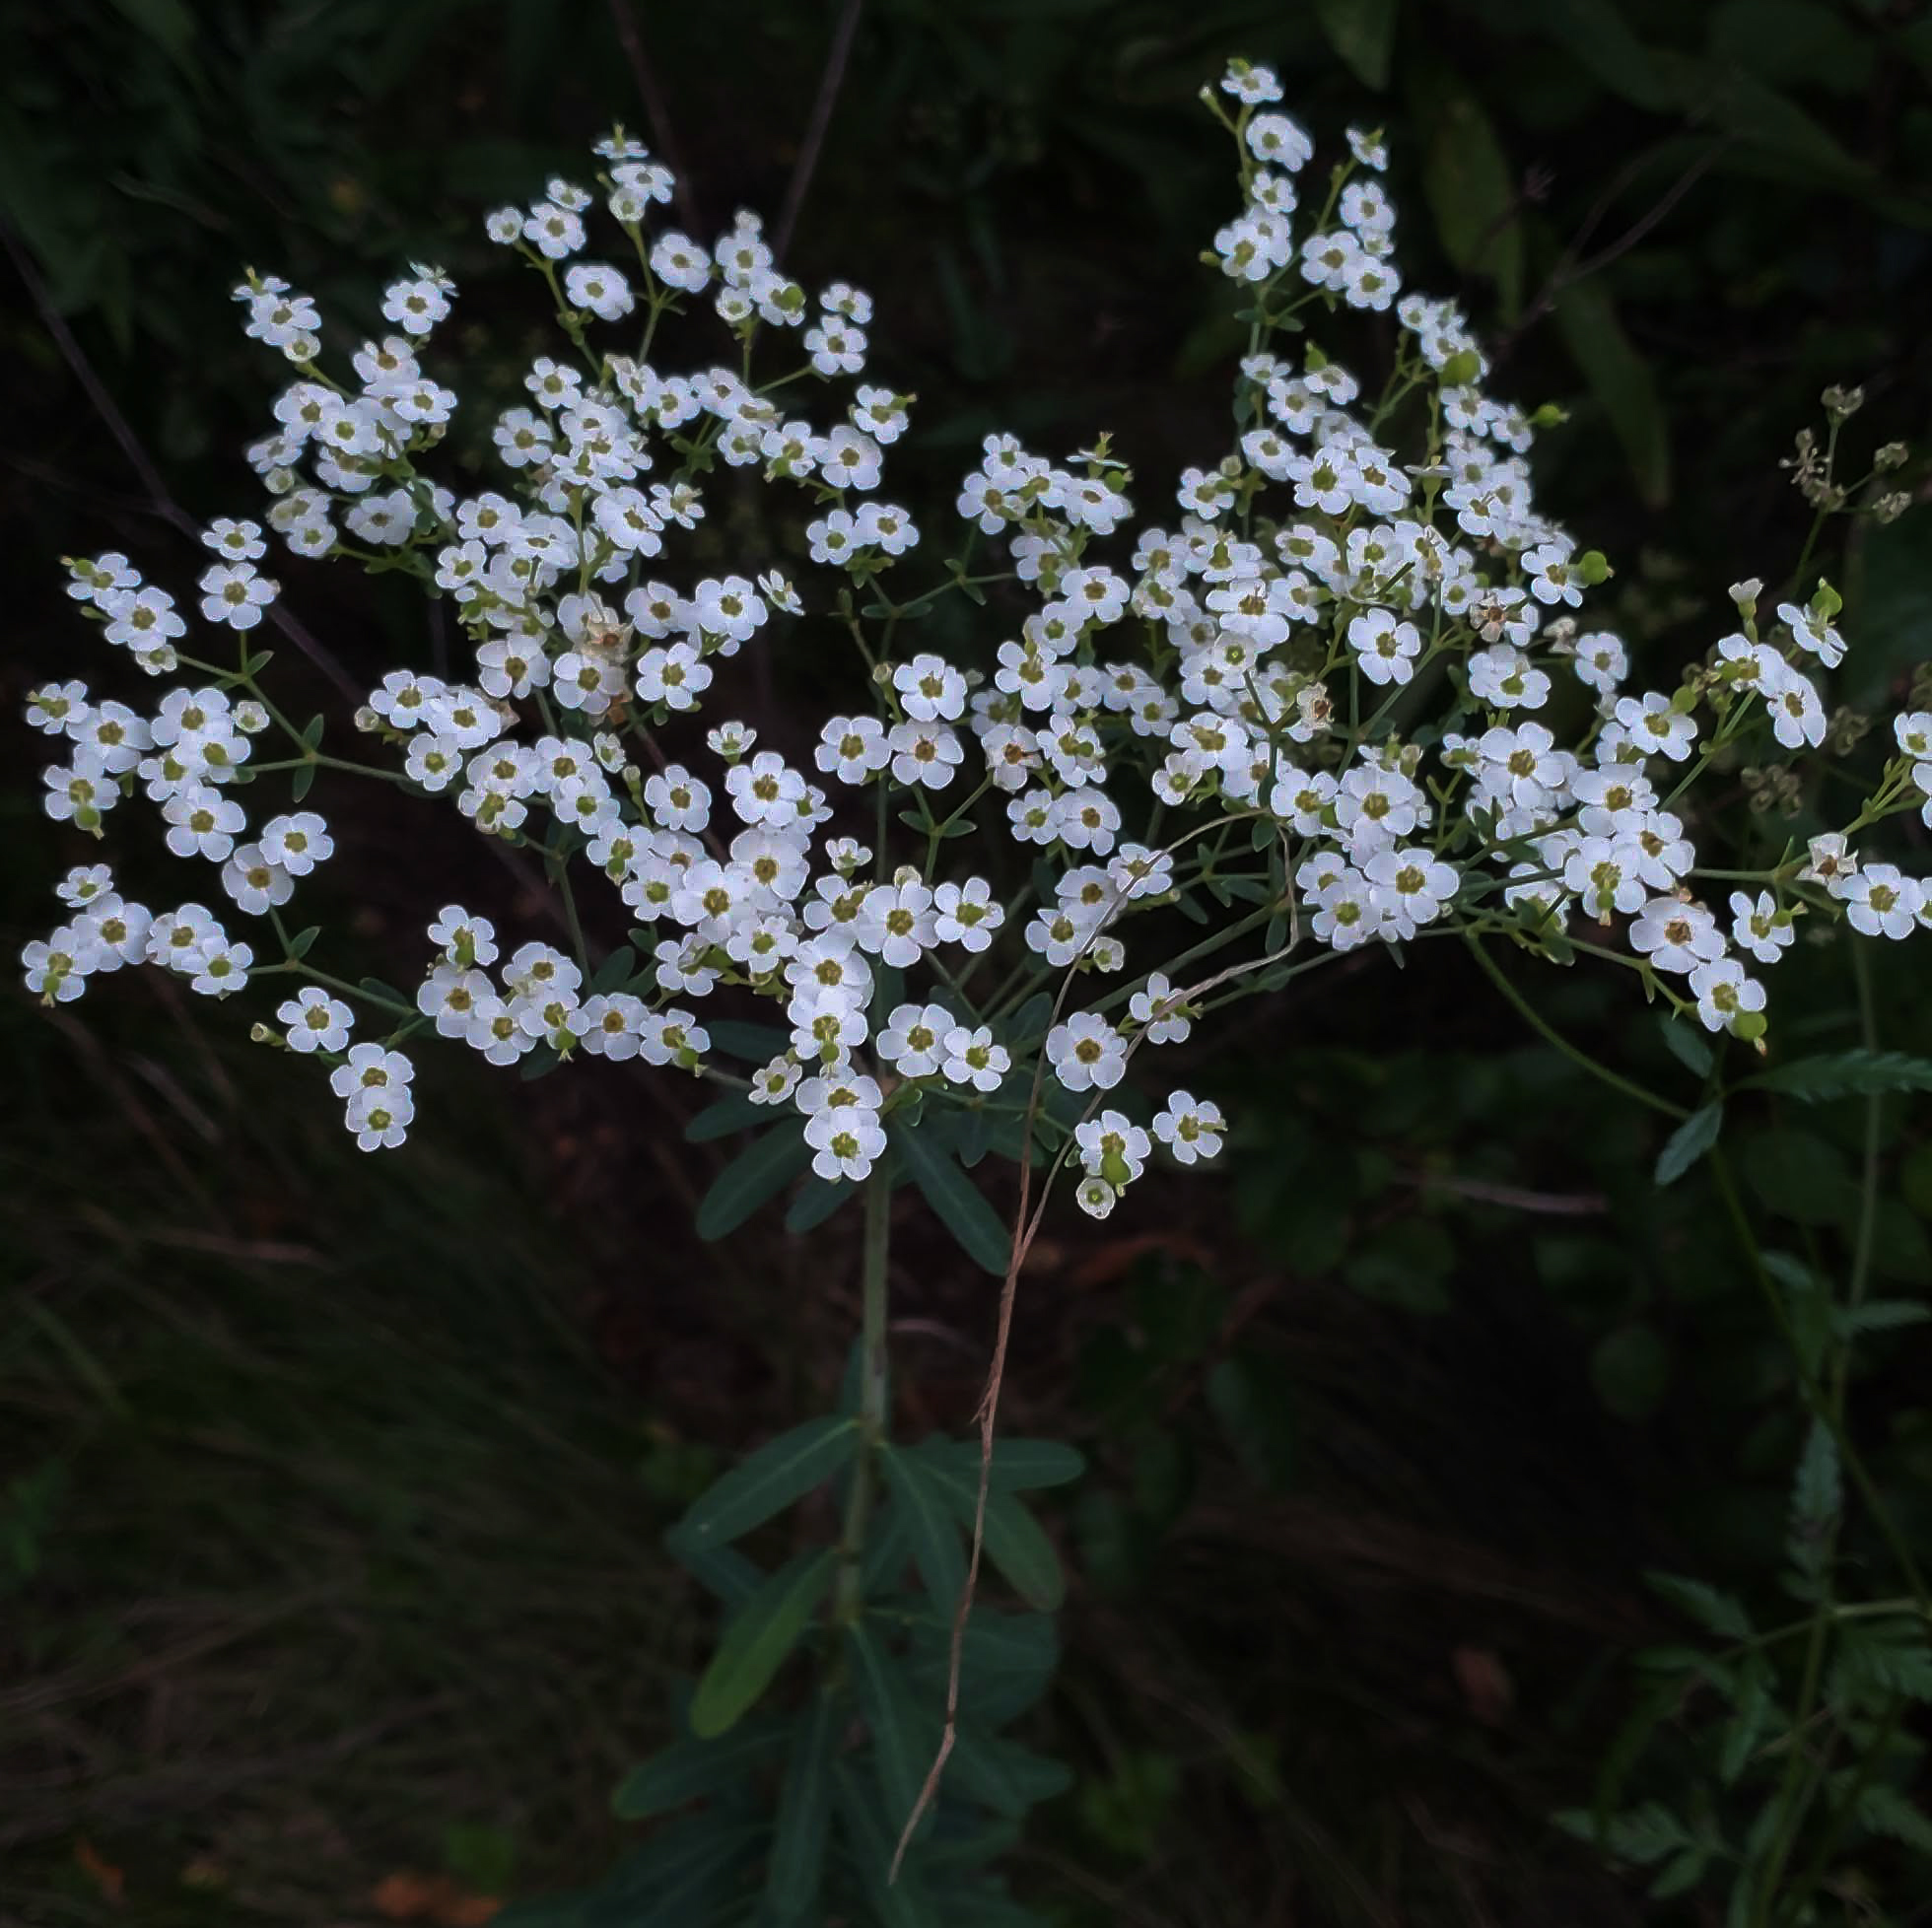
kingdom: Plantae
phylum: Tracheophyta
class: Magnoliopsida
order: Malpighiales
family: Euphorbiaceae
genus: Euphorbia
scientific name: Euphorbia corollata
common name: Flowering spurge
